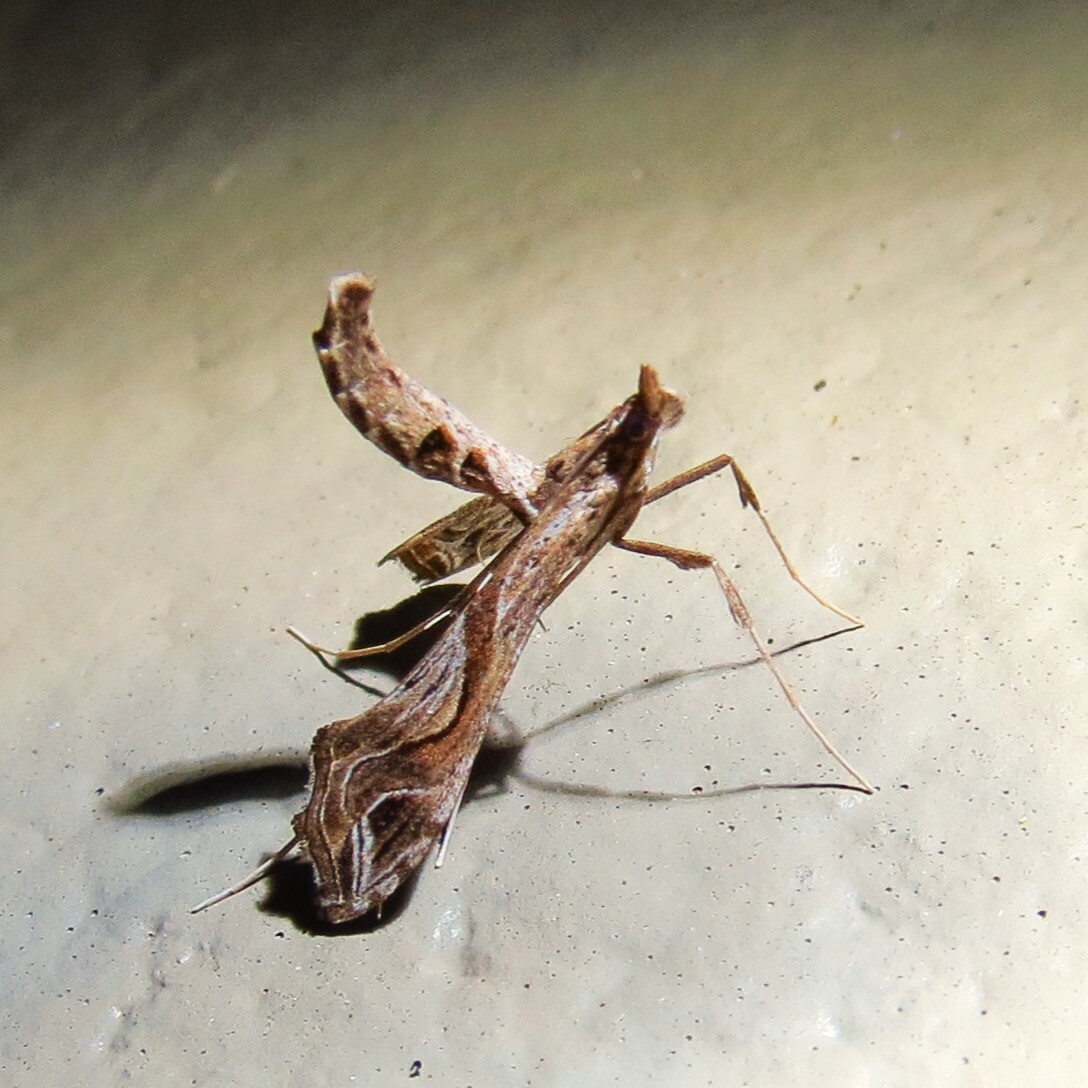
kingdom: Animalia
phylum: Arthropoda
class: Insecta
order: Lepidoptera
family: Crambidae
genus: Lineodes
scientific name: Lineodes integra
